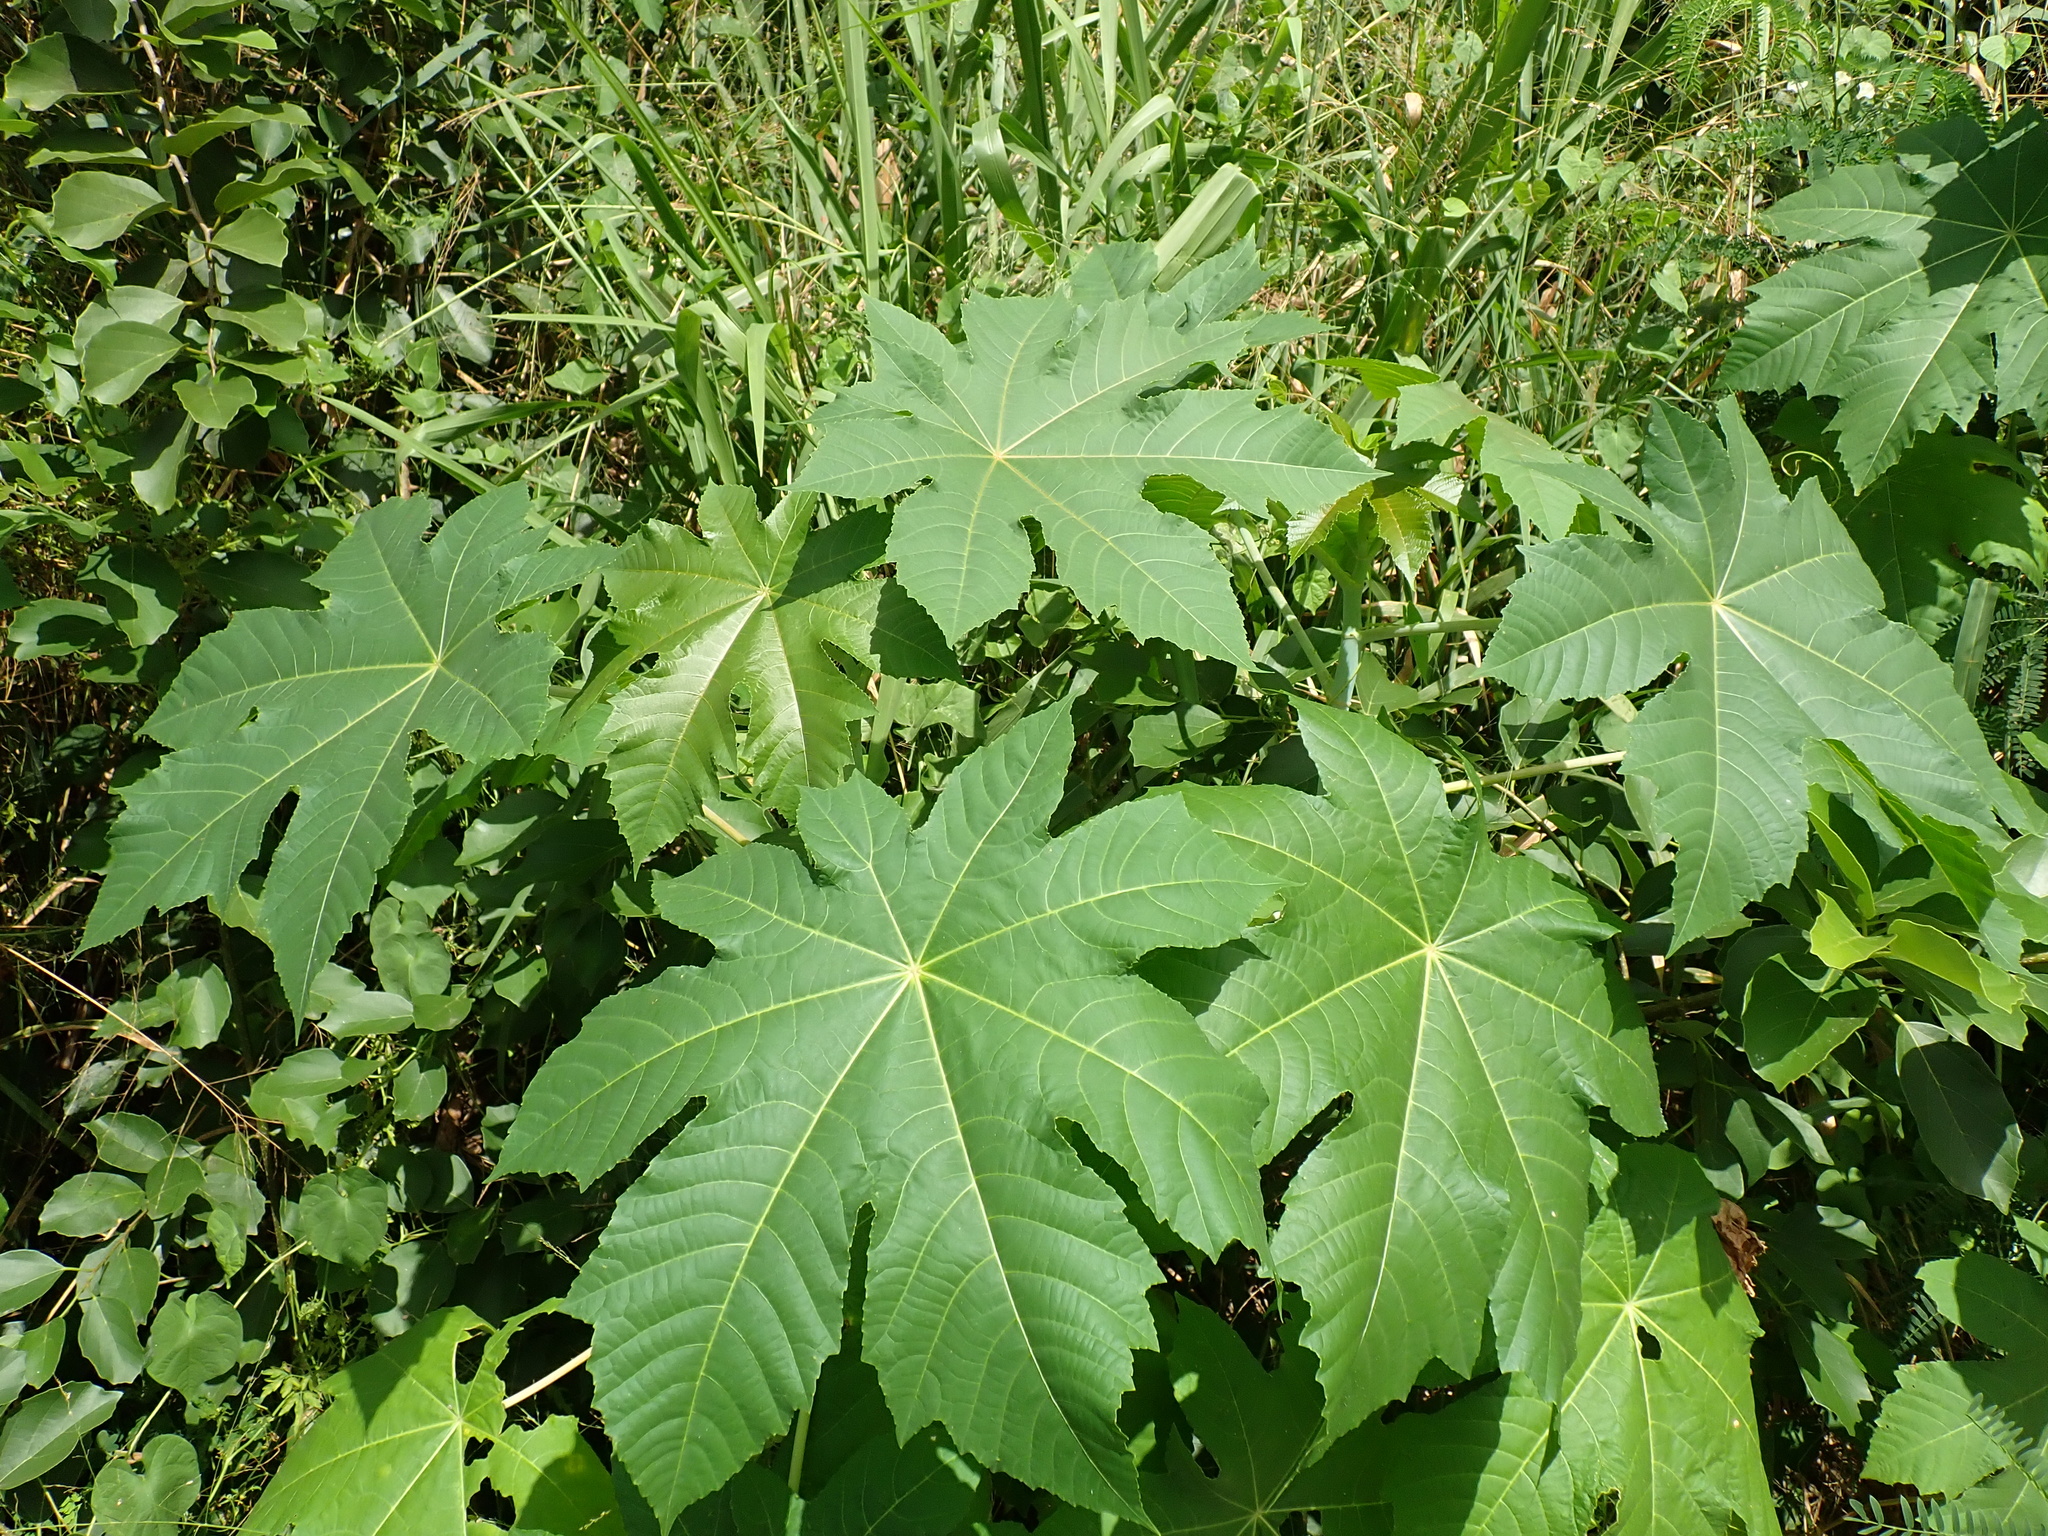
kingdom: Plantae
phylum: Tracheophyta
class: Magnoliopsida
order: Malpighiales
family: Euphorbiaceae
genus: Ricinus
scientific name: Ricinus communis
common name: Castor-oil-plant
